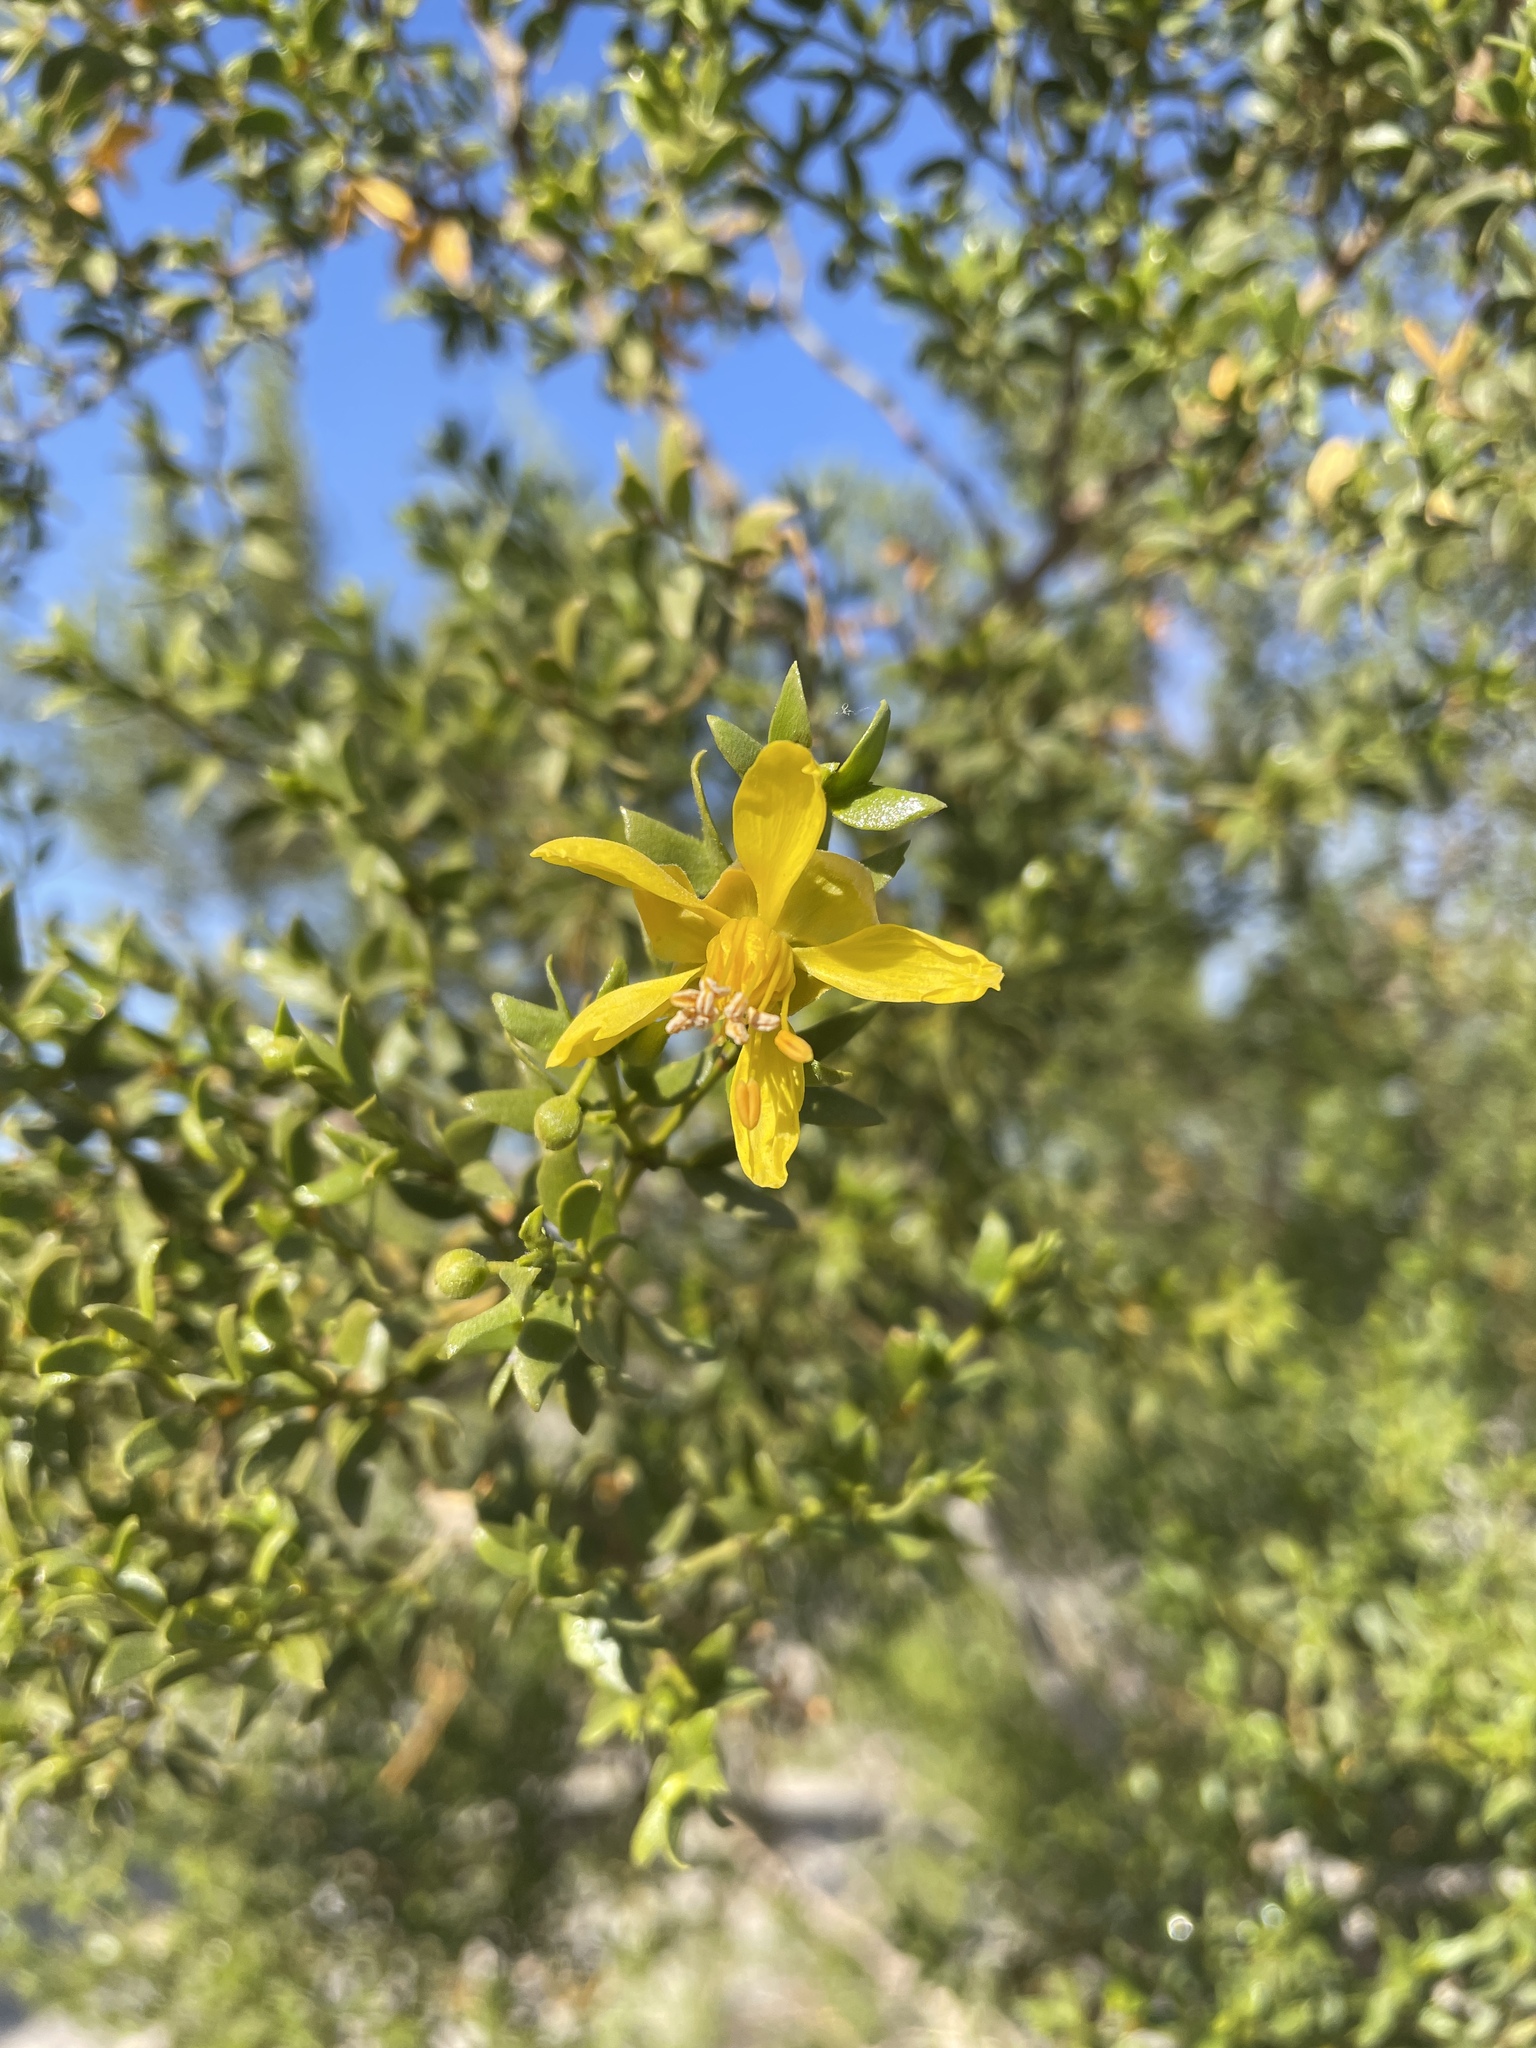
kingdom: Plantae
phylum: Tracheophyta
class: Magnoliopsida
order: Zygophyllales
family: Zygophyllaceae
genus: Larrea
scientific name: Larrea tridentata
